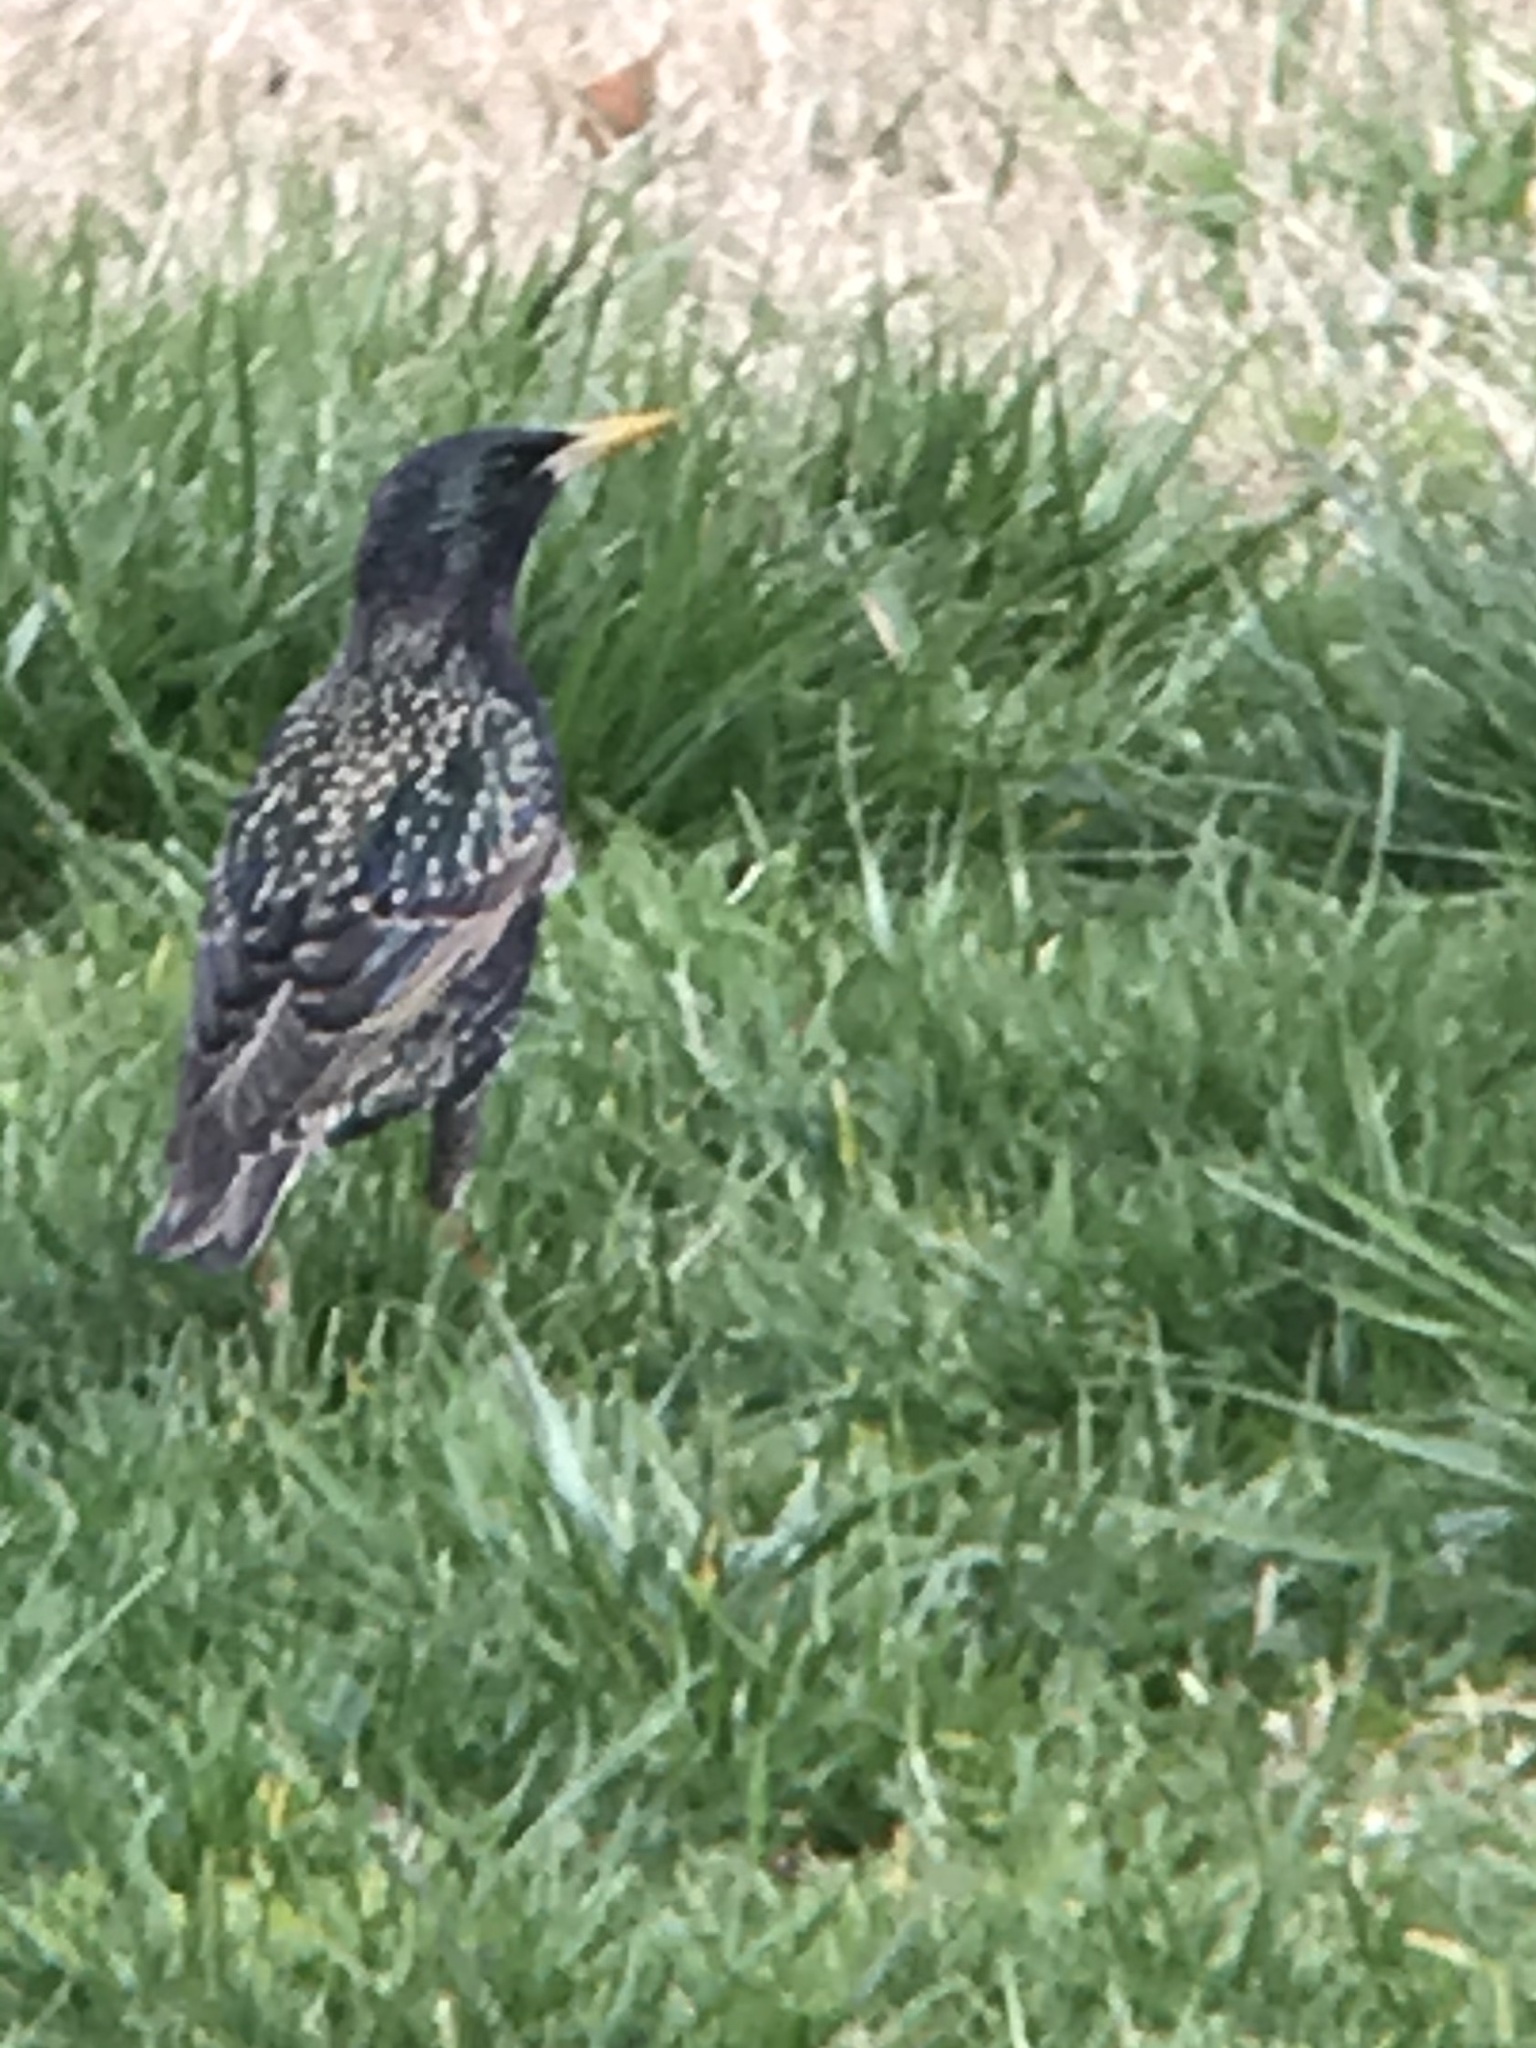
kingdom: Animalia
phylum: Chordata
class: Aves
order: Passeriformes
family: Sturnidae
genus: Sturnus
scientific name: Sturnus vulgaris
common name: Common starling
